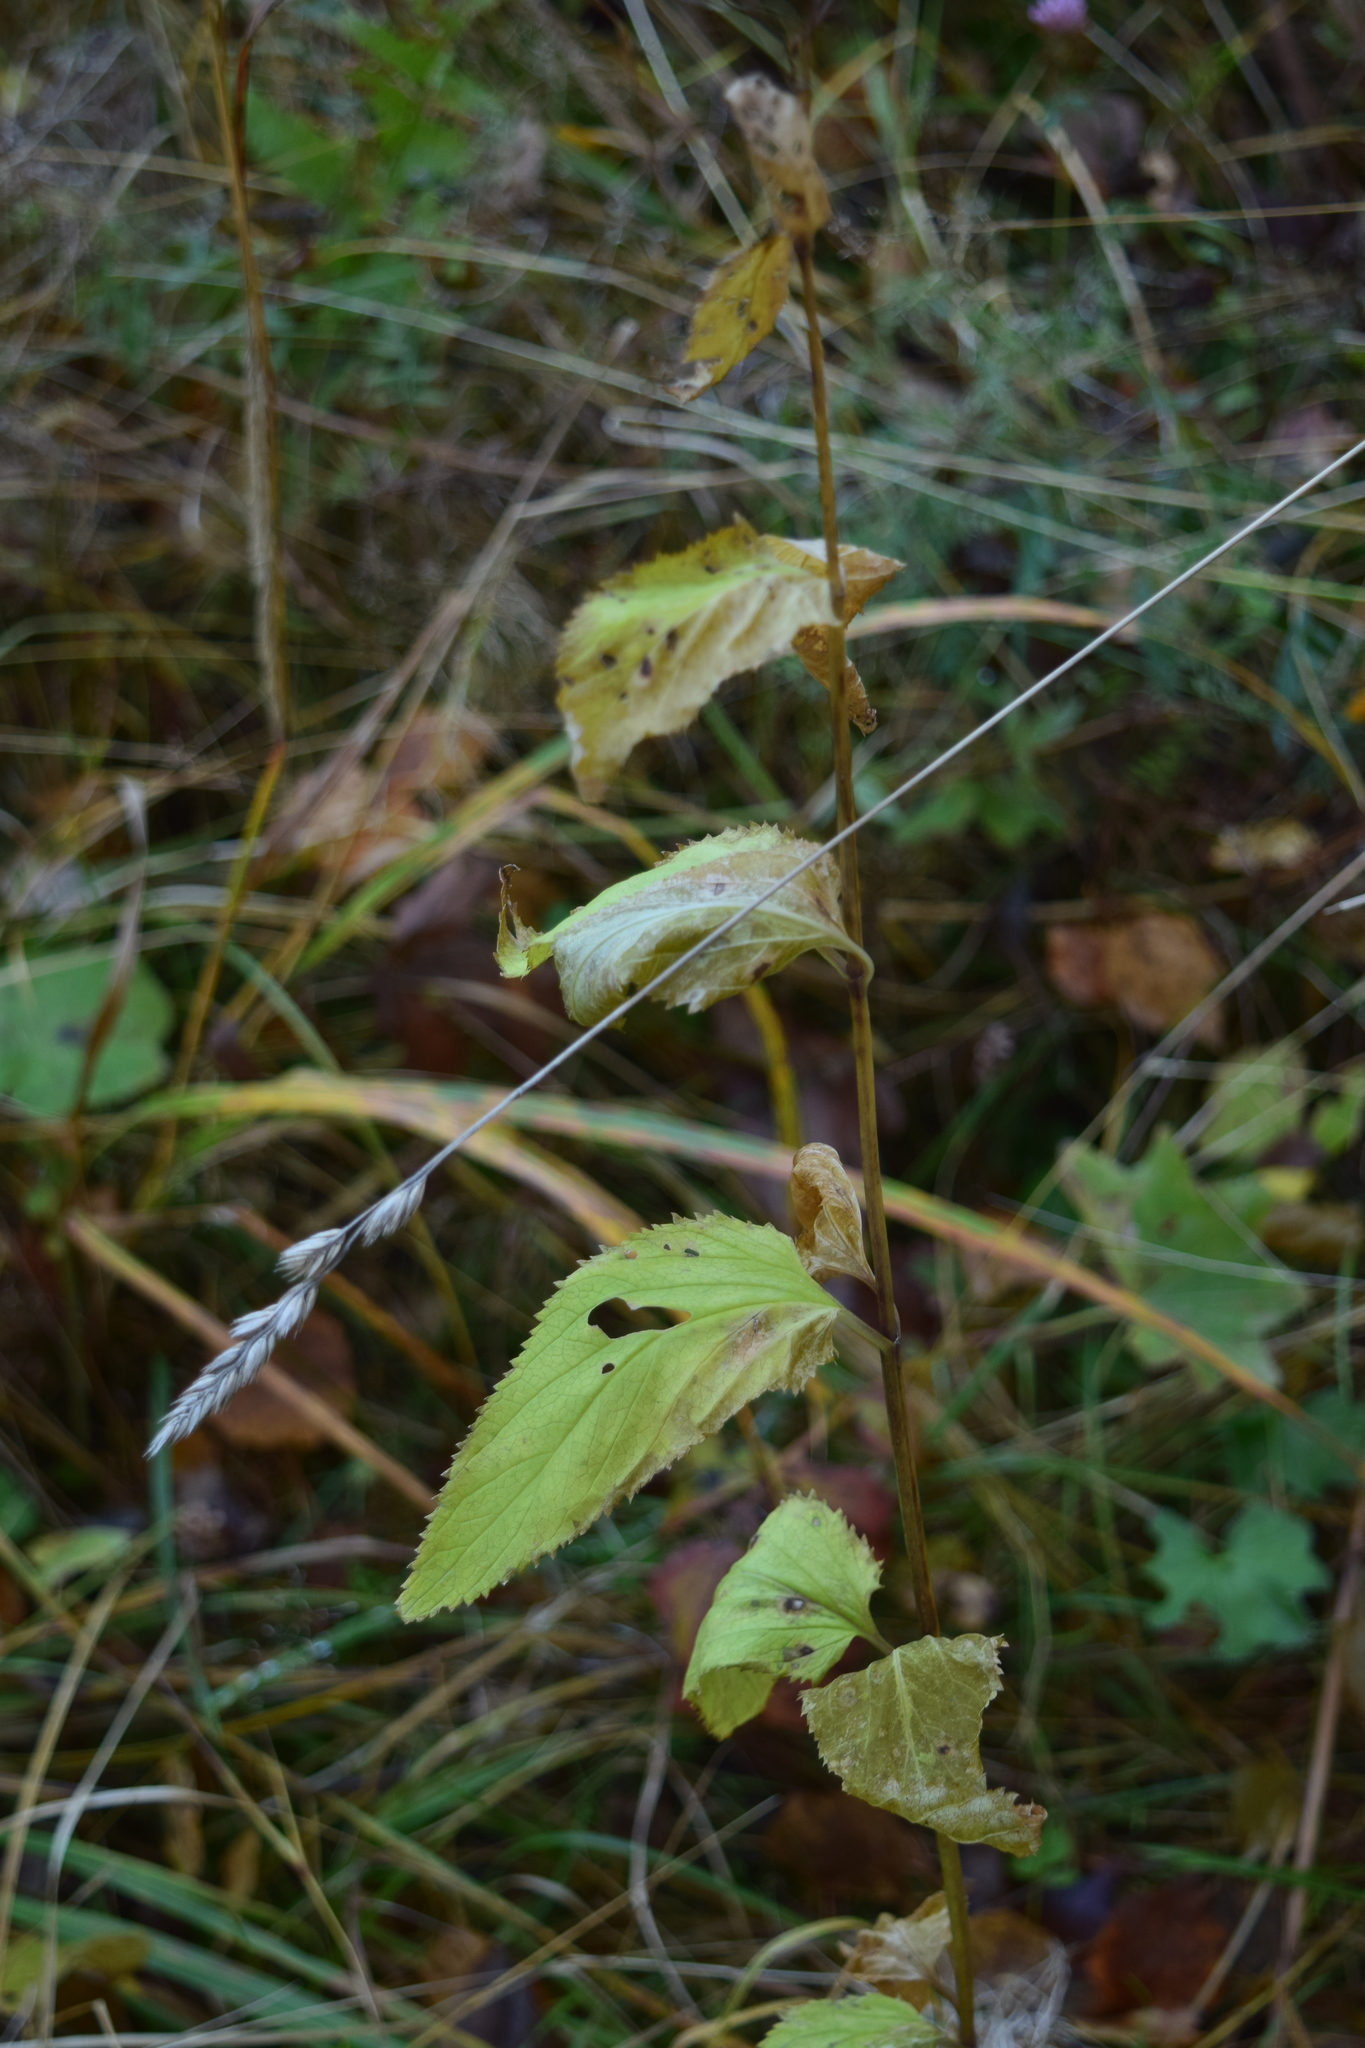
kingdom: Plantae
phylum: Tracheophyta
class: Magnoliopsida
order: Lamiales
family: Scrophulariaceae
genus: Scrophularia
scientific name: Scrophularia nodosa
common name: Common figwort
